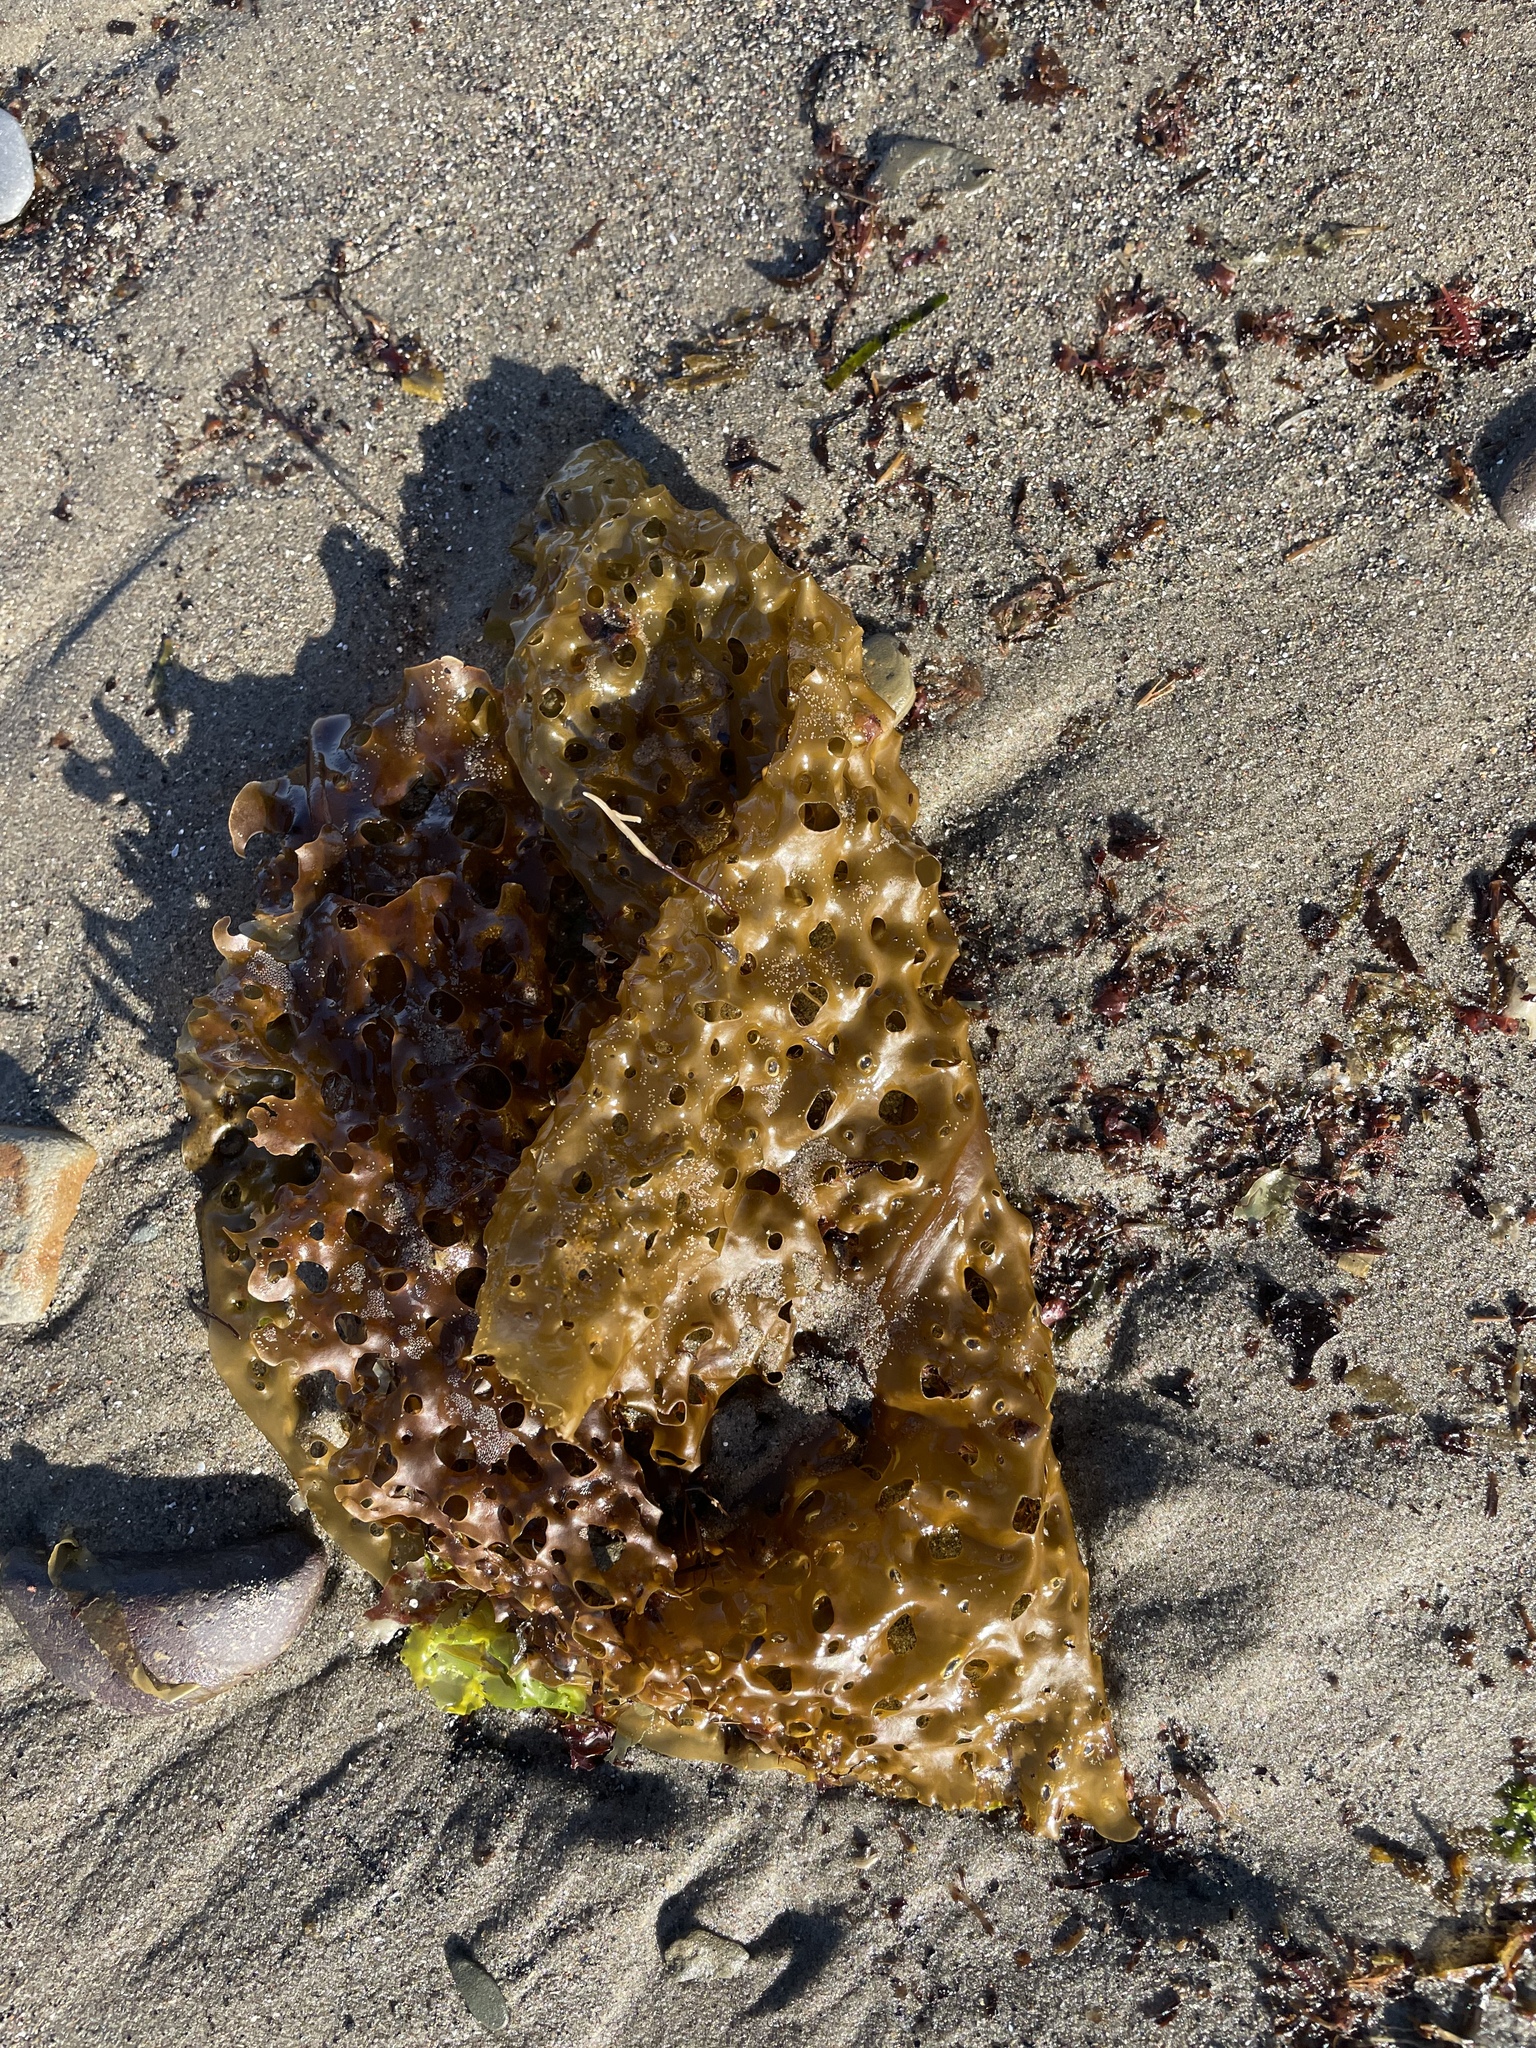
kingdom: Chromista
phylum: Ochrophyta
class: Phaeophyceae
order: Laminariales
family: Costariaceae
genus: Agarum
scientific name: Agarum clathratum
